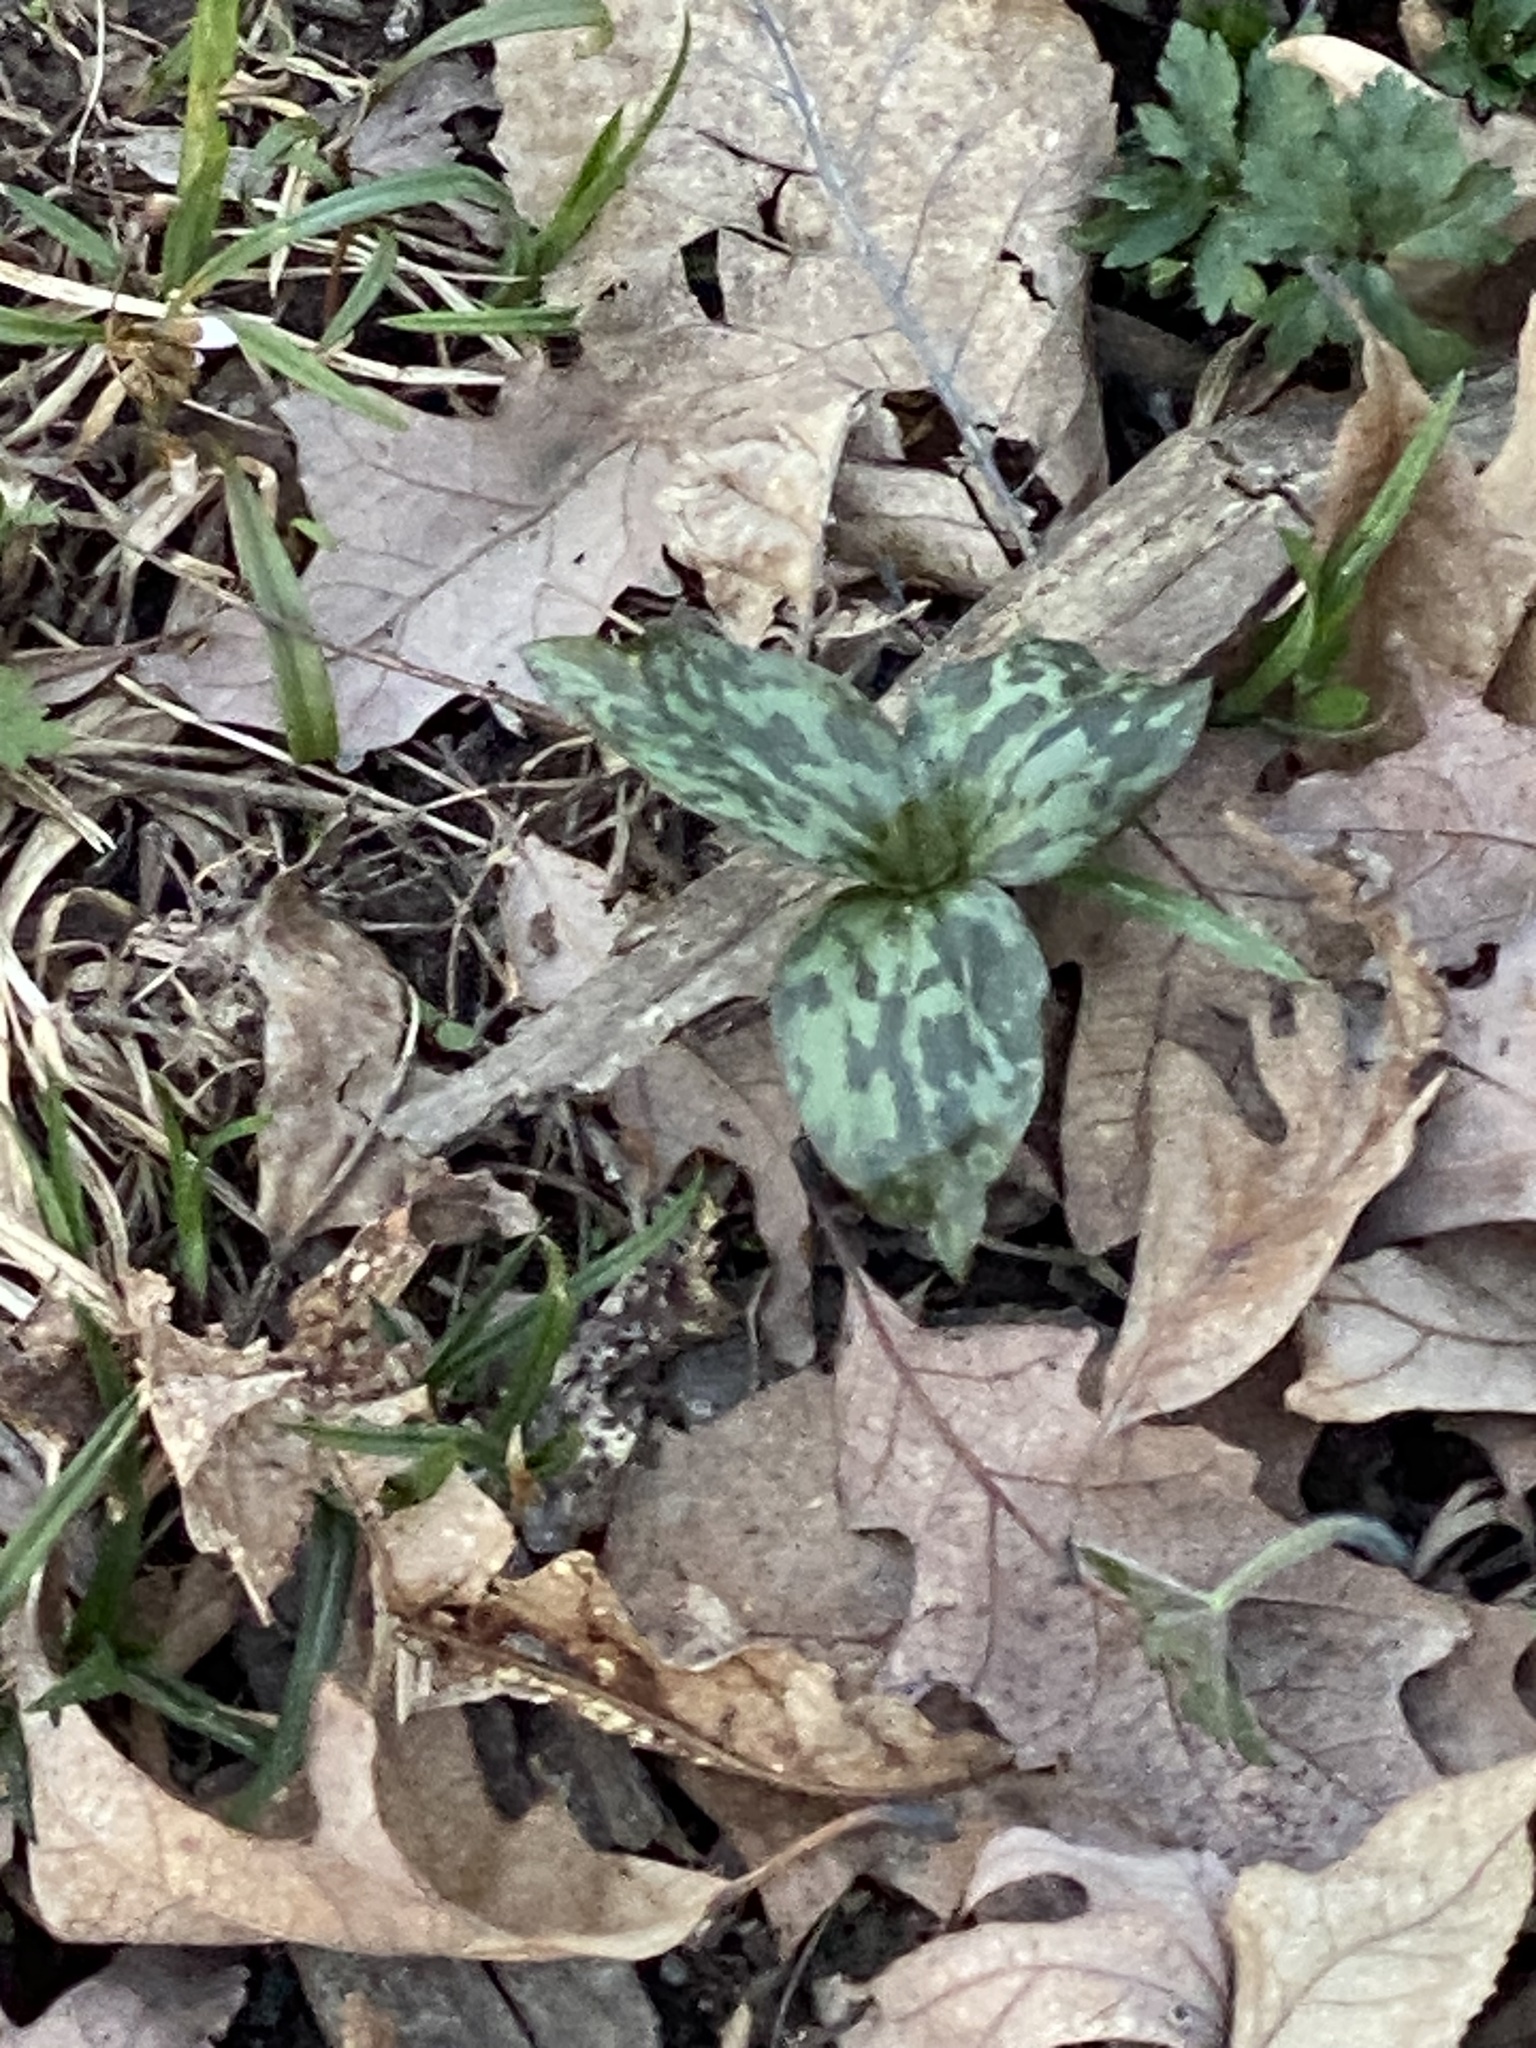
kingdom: Plantae
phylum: Tracheophyta
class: Liliopsida
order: Liliales
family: Melanthiaceae
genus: Trillium
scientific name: Trillium recurvatum
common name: Bloody butcher
